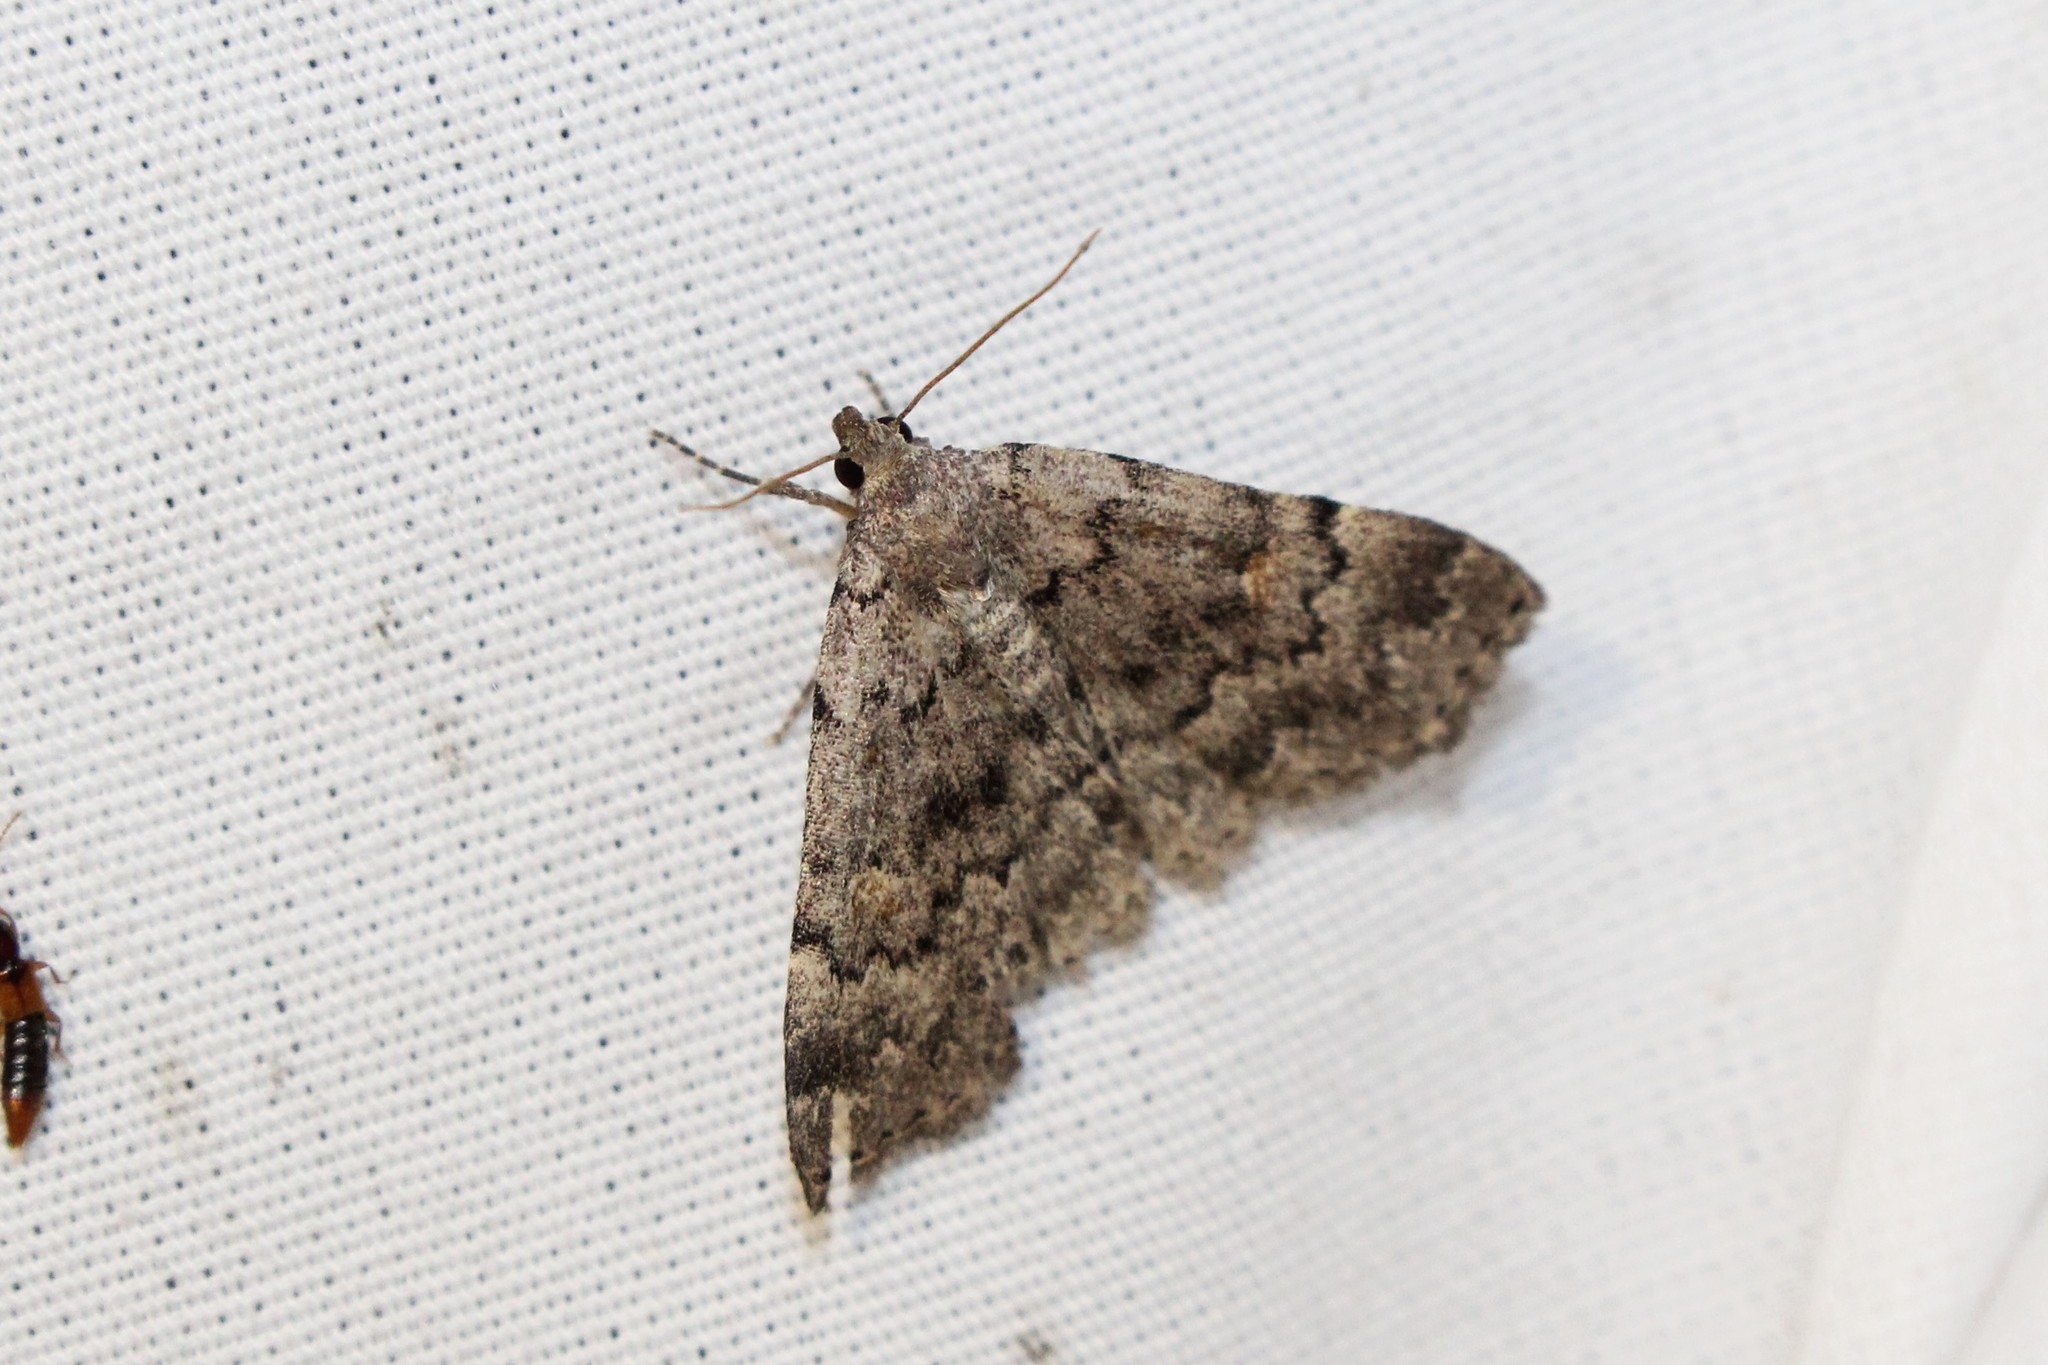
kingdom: Animalia
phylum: Arthropoda
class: Insecta
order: Lepidoptera
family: Erebidae
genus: Idia
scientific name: Idia aemula
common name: Common idia moth
